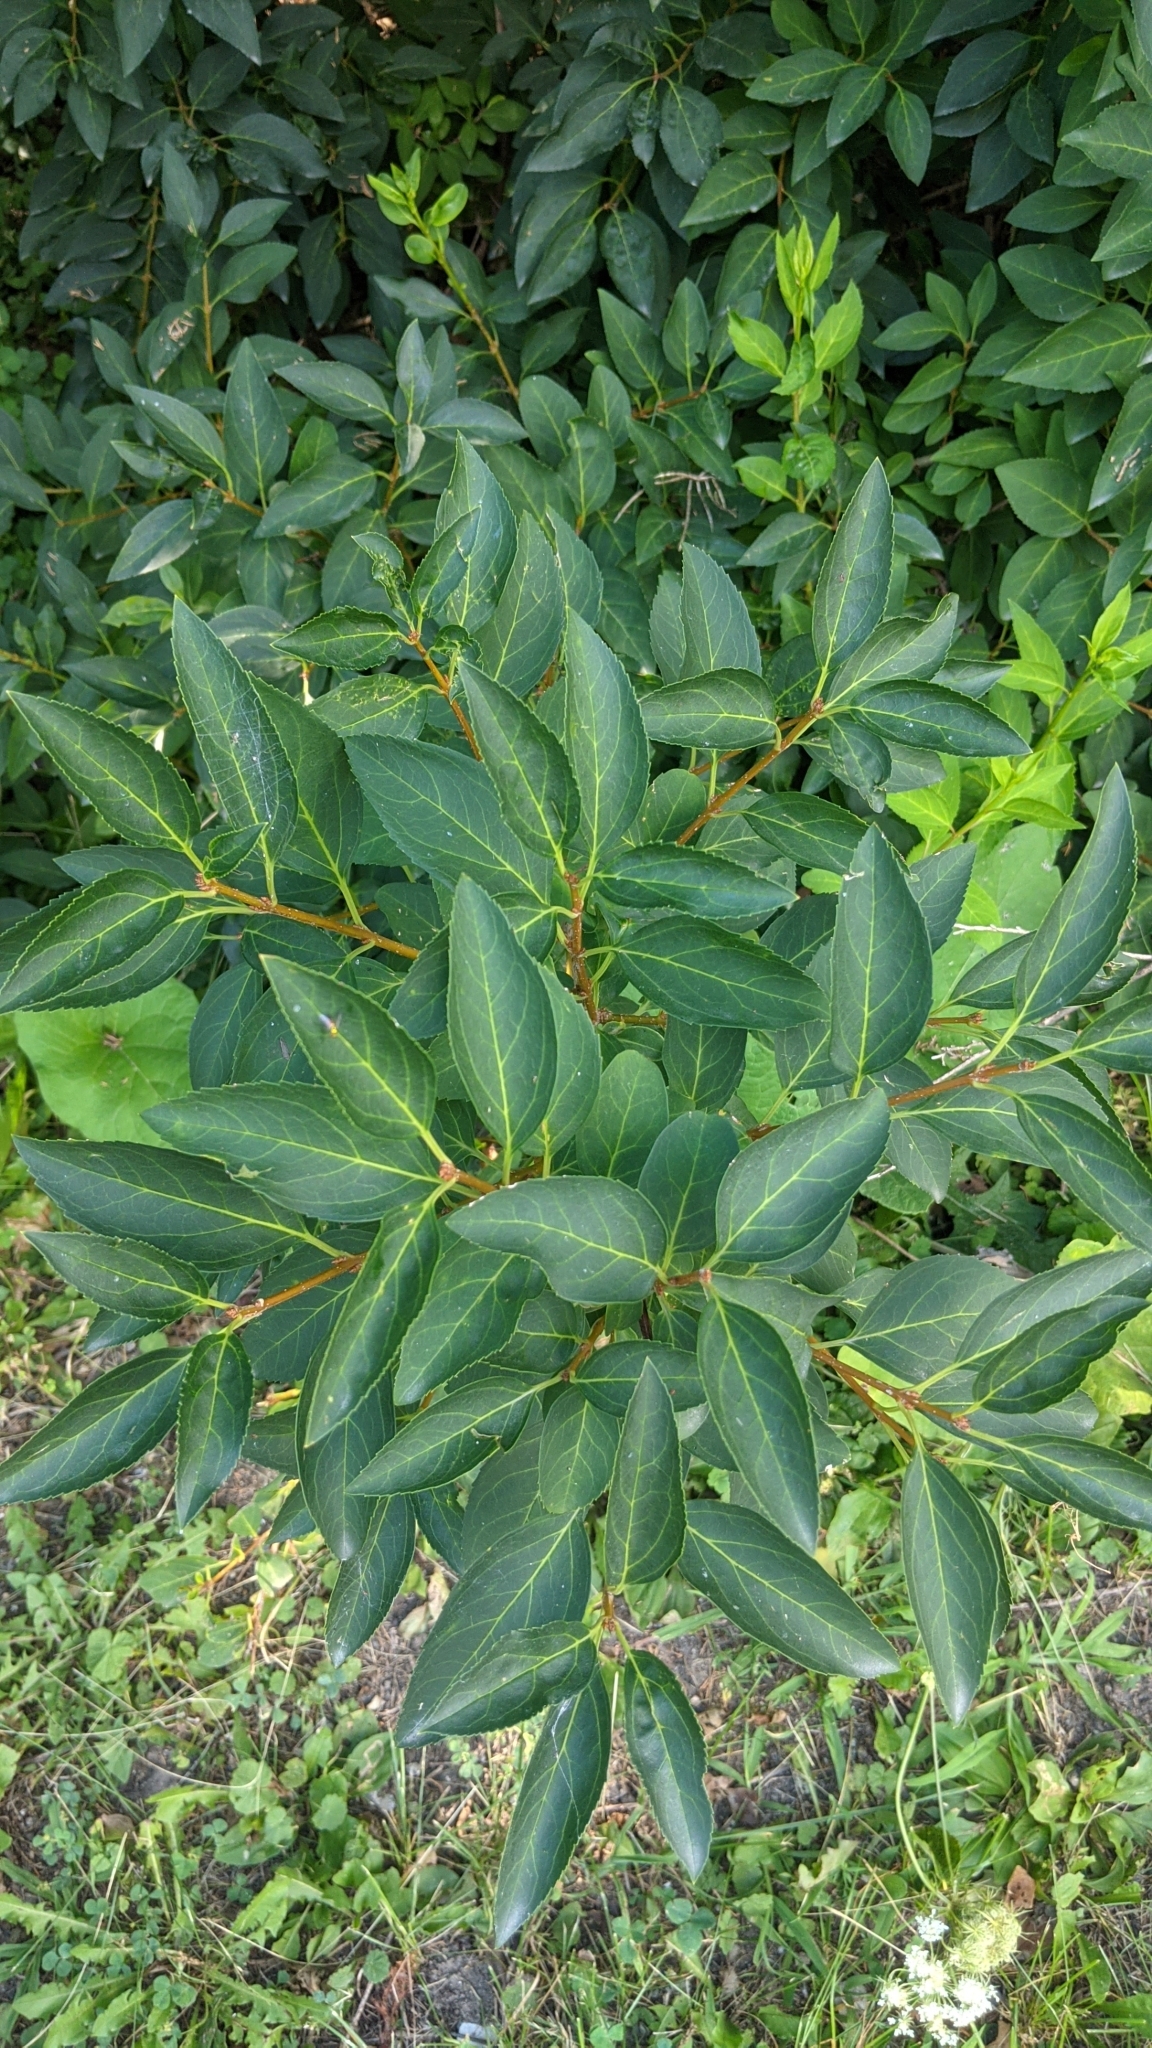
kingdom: Plantae
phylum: Tracheophyta
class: Magnoliopsida
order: Lamiales
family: Oleaceae
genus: Forsythia
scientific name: Forsythia
